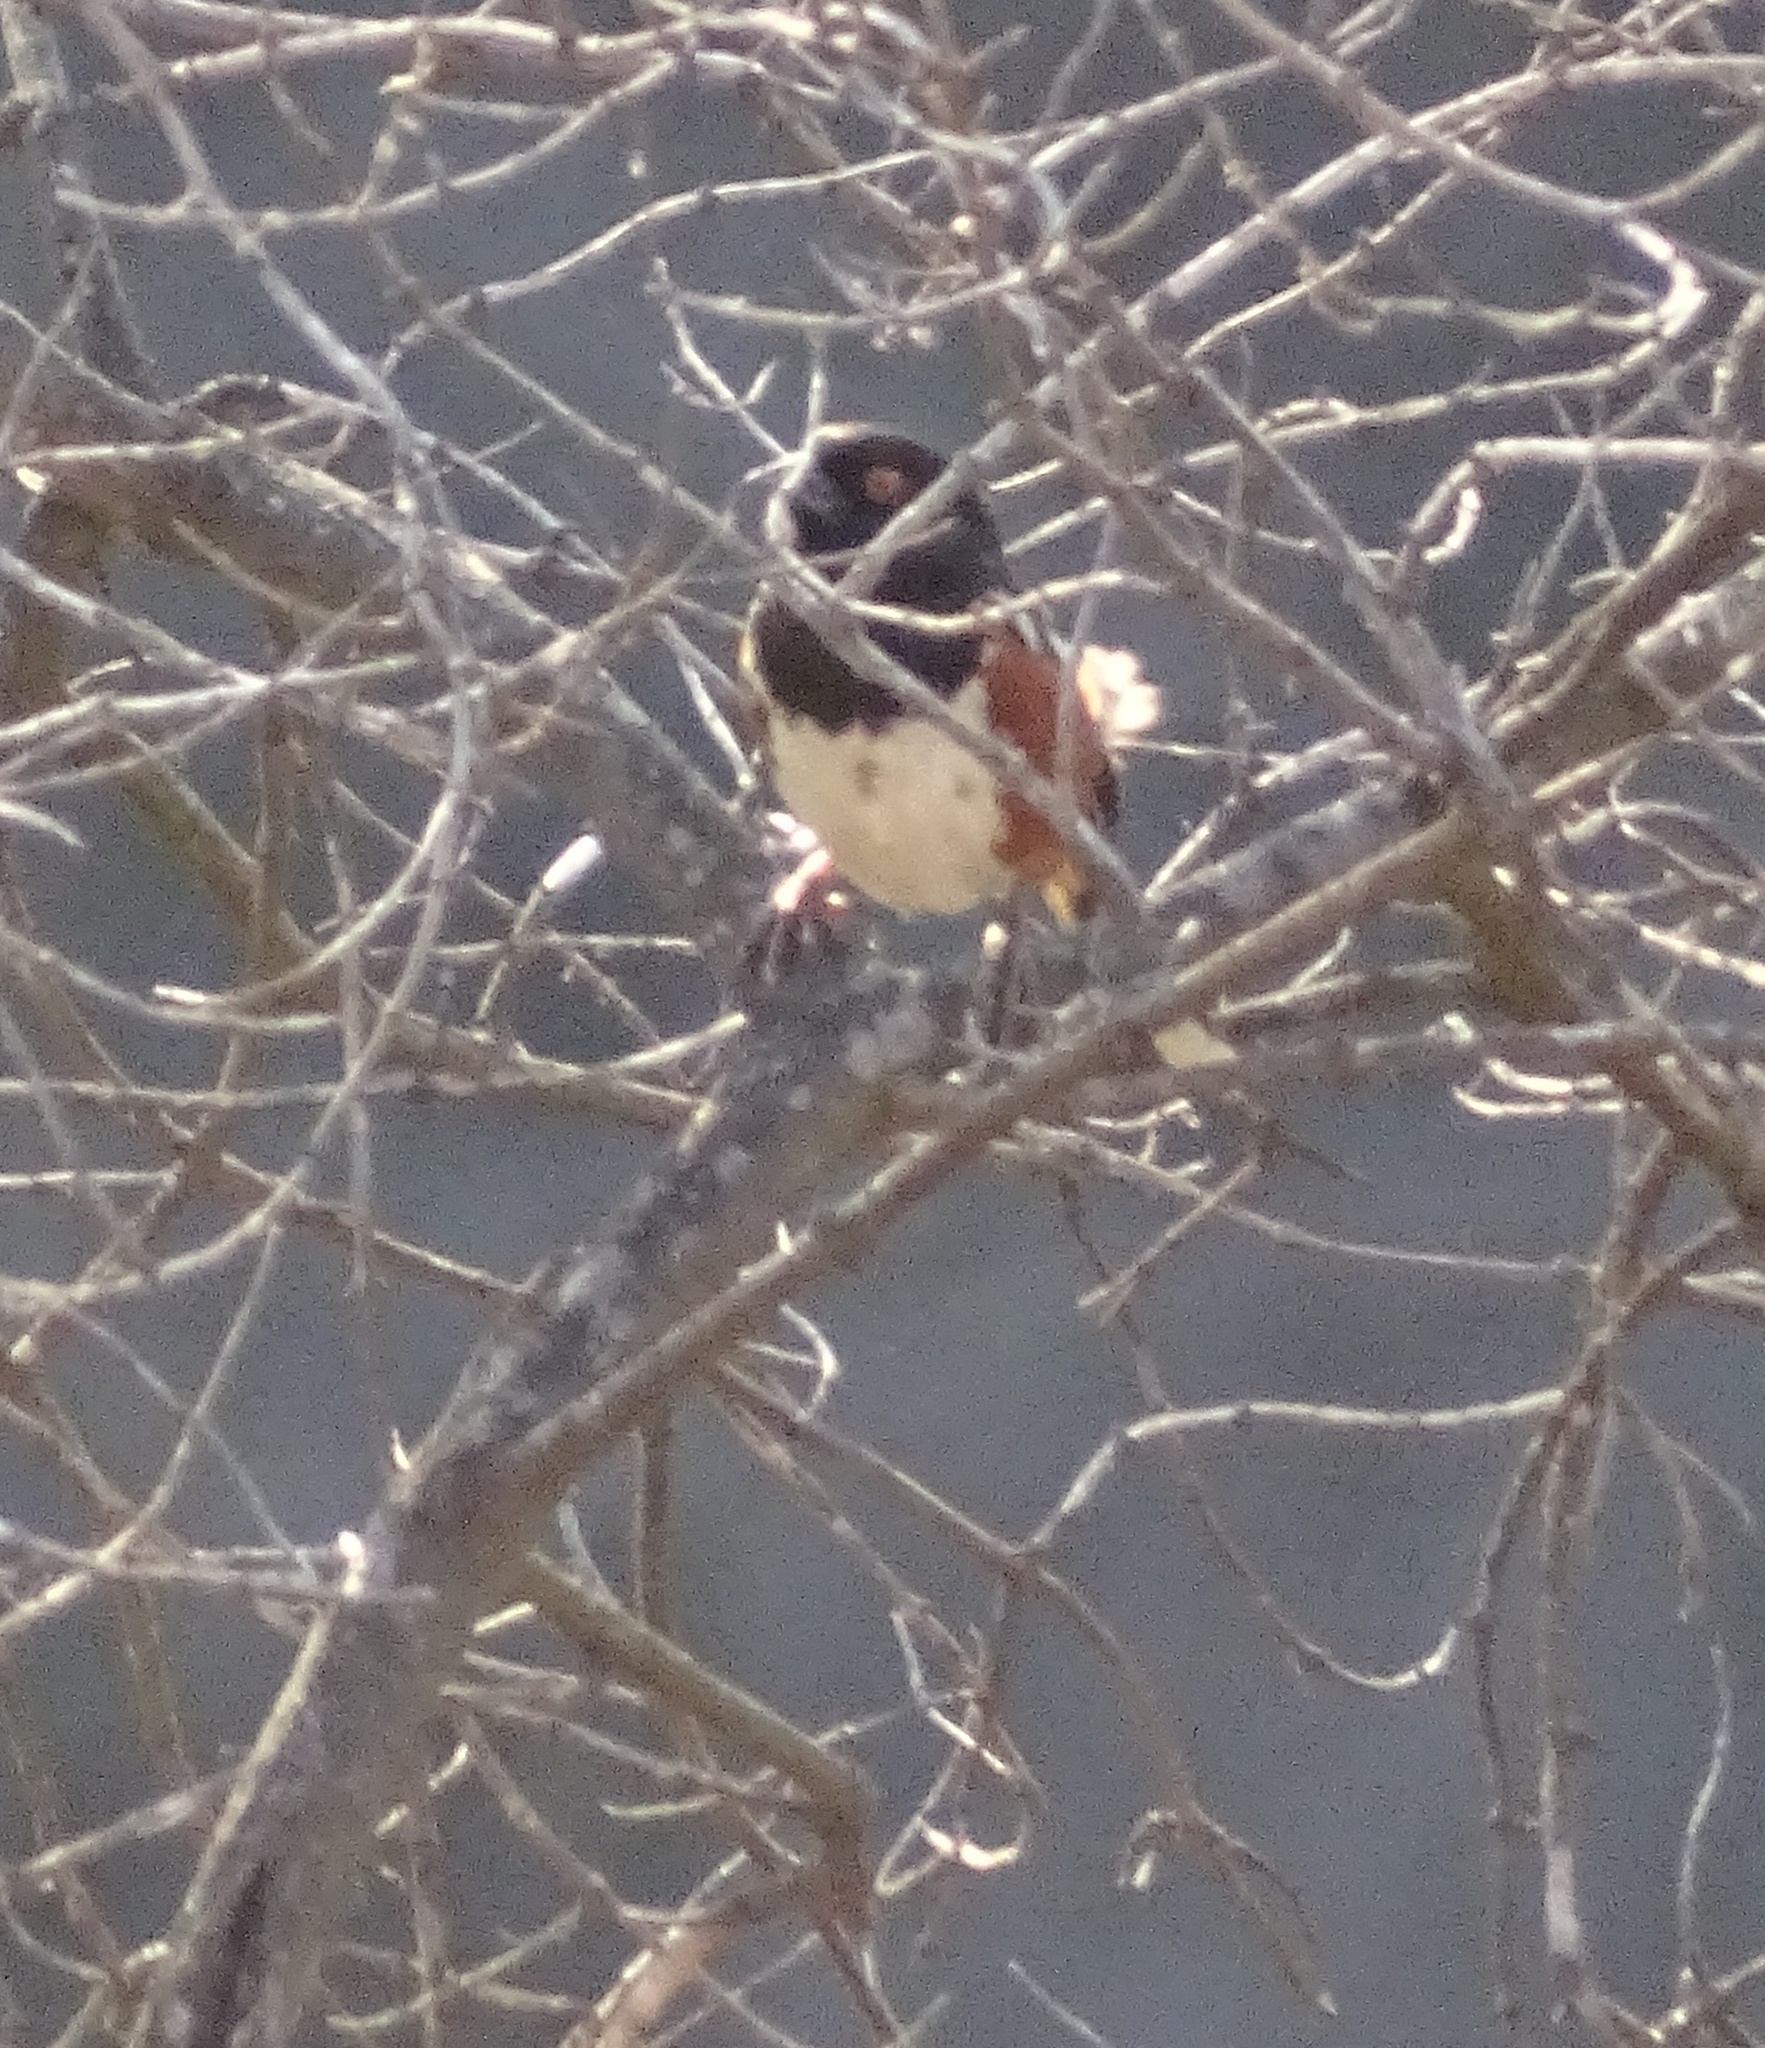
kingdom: Animalia
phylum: Chordata
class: Aves
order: Passeriformes
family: Passerellidae
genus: Pipilo
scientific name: Pipilo maculatus
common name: Spotted towhee
